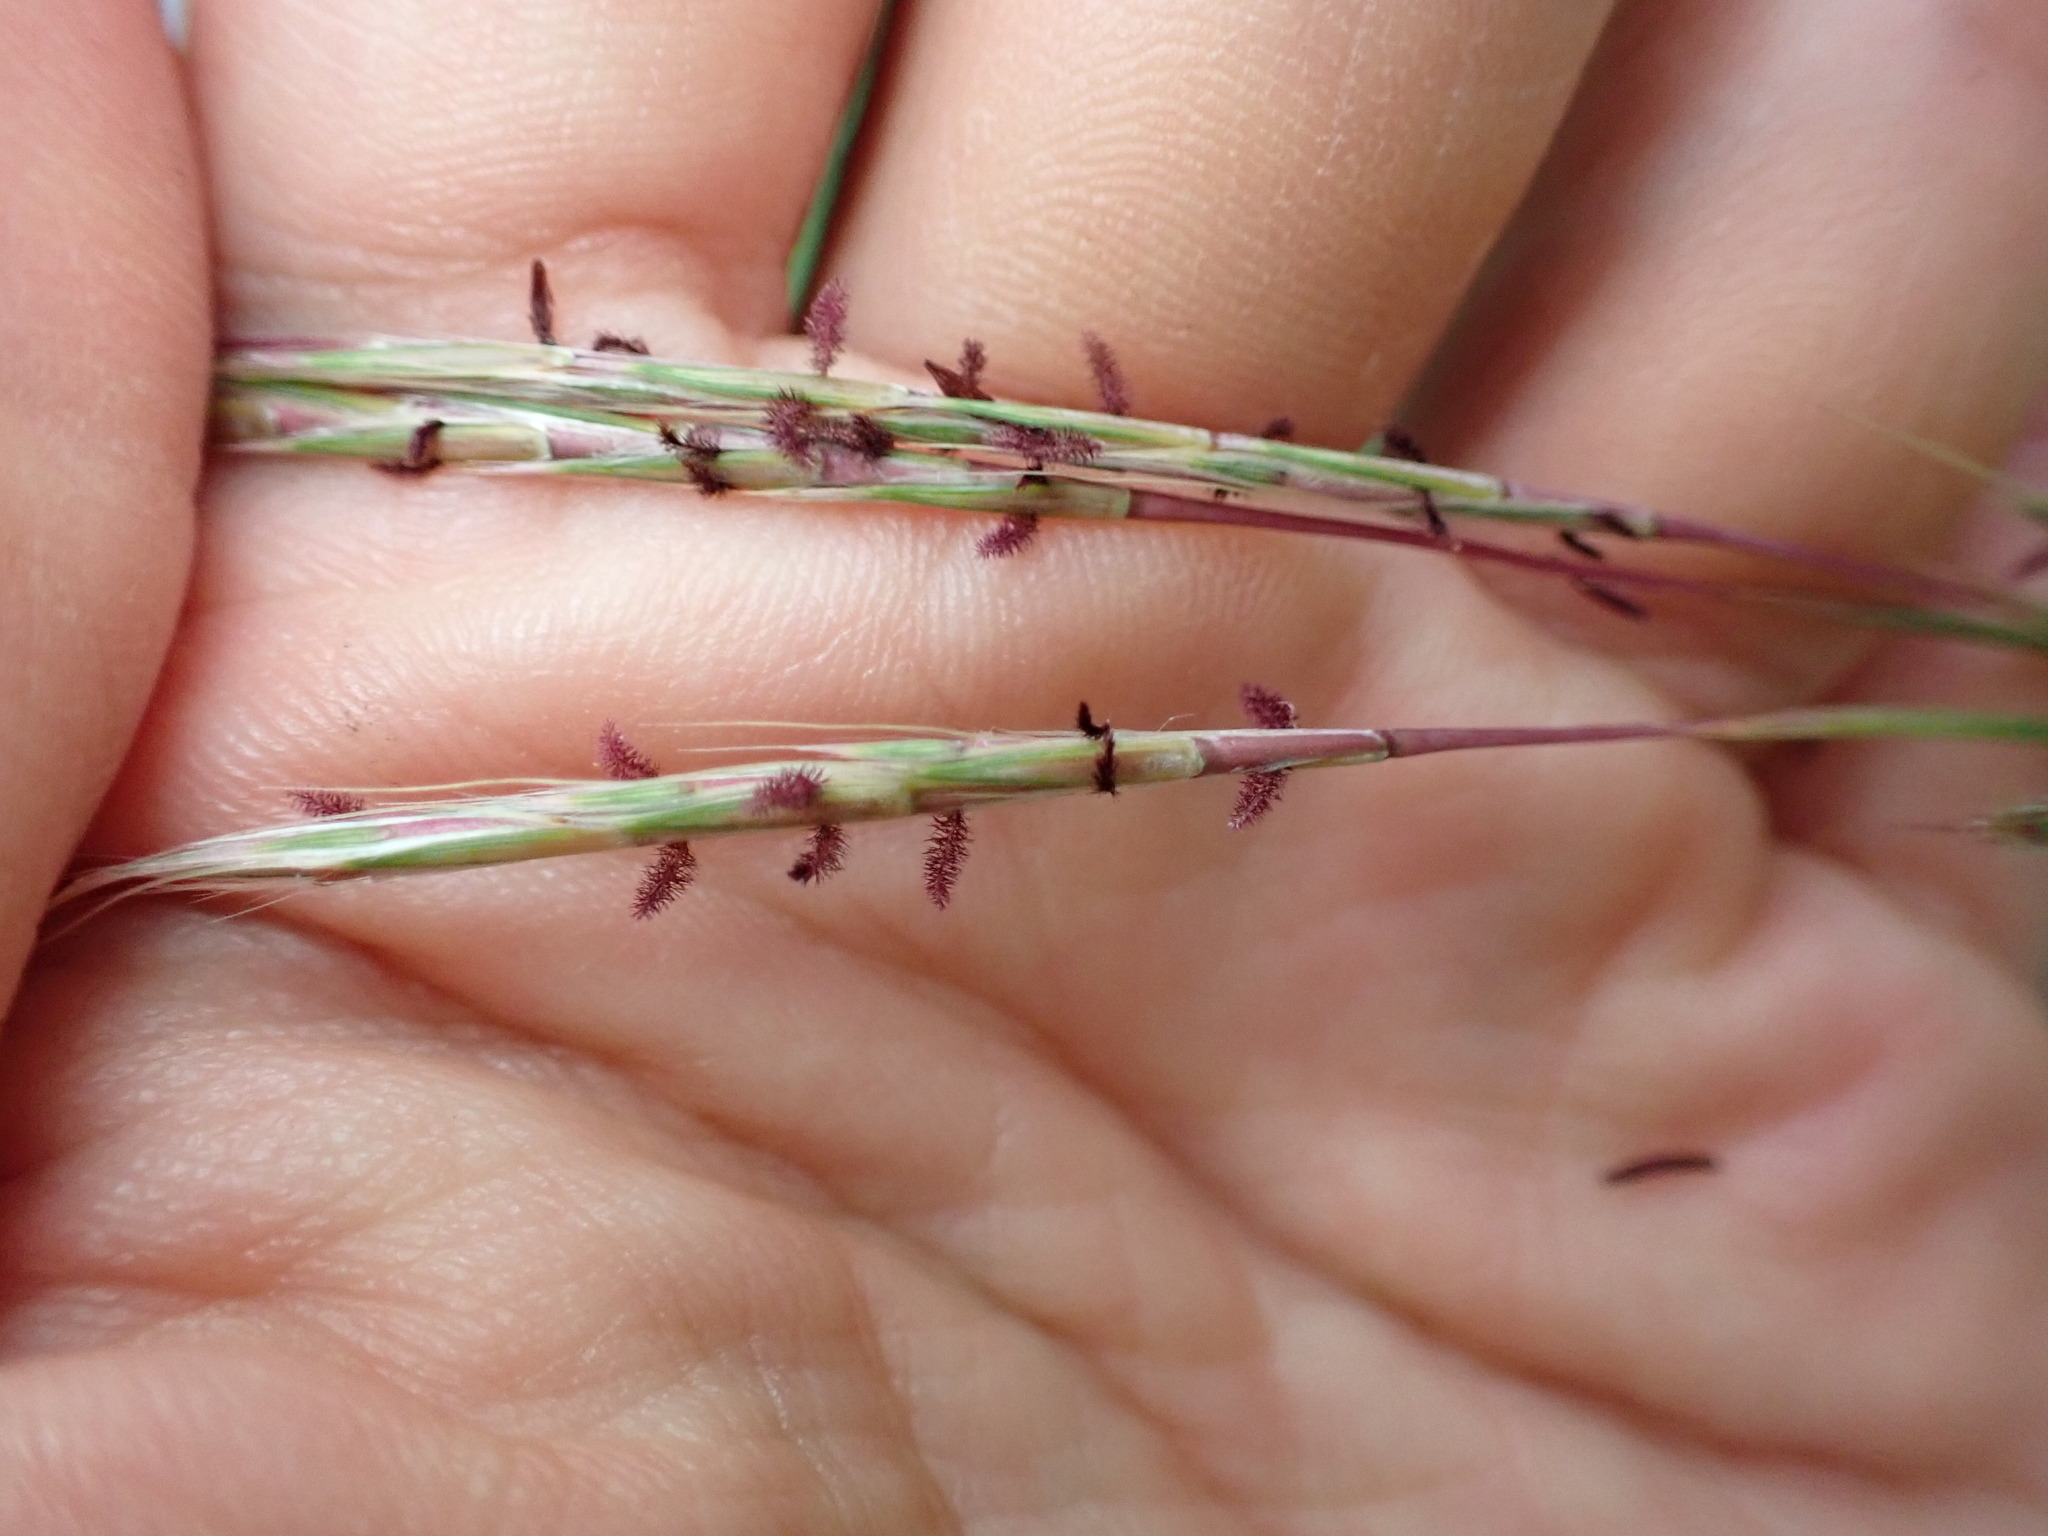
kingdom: Plantae
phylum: Tracheophyta
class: Liliopsida
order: Poales
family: Poaceae
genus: Schizachyrium
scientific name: Schizachyrium scoparium
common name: Little bluestem
